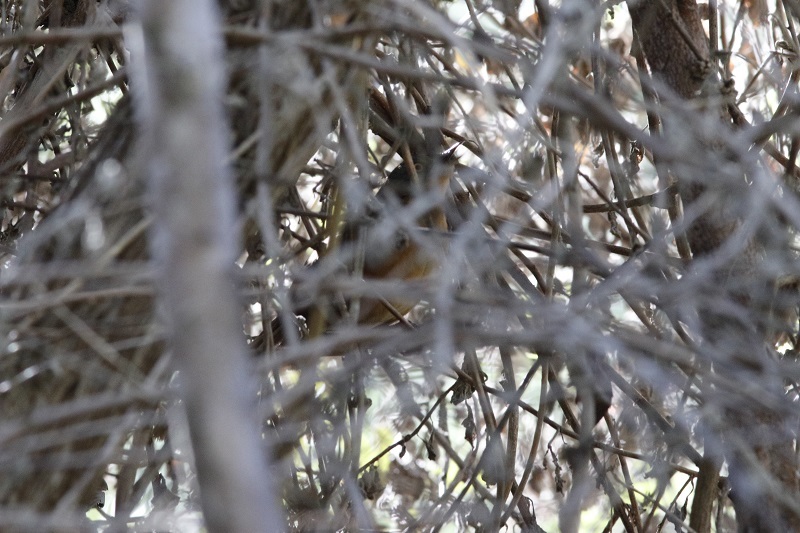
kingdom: Animalia
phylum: Chordata
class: Aves
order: Passeriformes
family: Macrosphenidae
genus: Cryptillas
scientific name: Cryptillas victorini
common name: Victorin's warbler
